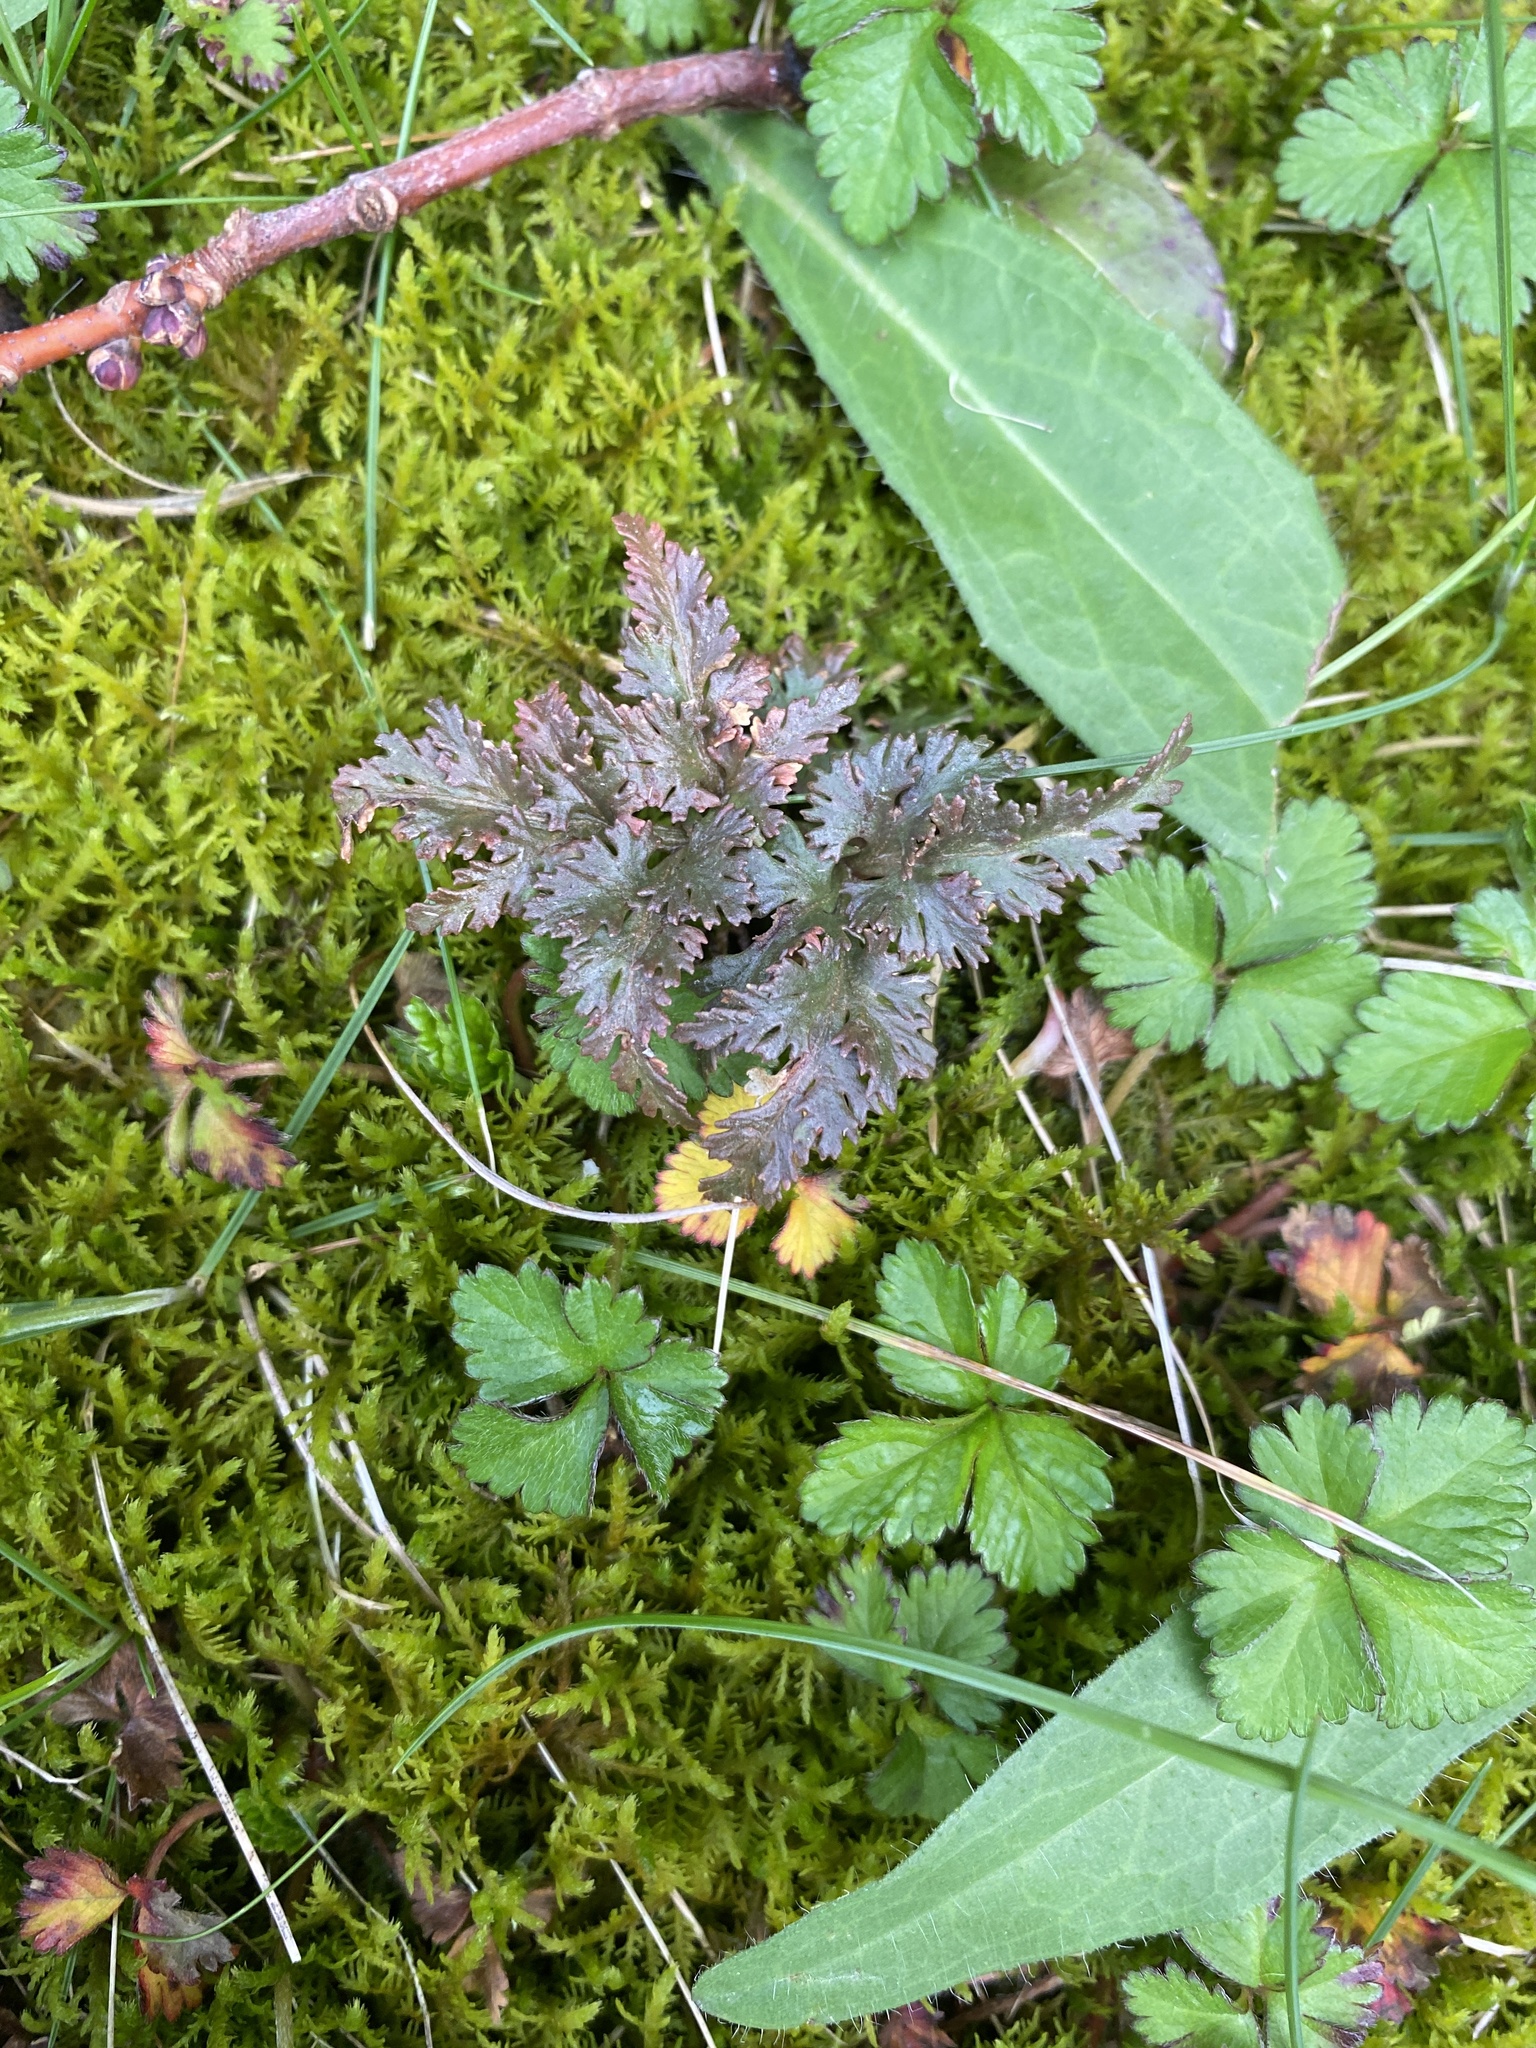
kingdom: Plantae
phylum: Tracheophyta
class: Polypodiopsida
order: Ophioglossales
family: Ophioglossaceae
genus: Sceptridium
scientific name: Sceptridium dissectum
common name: Cut-leaved grapefern
